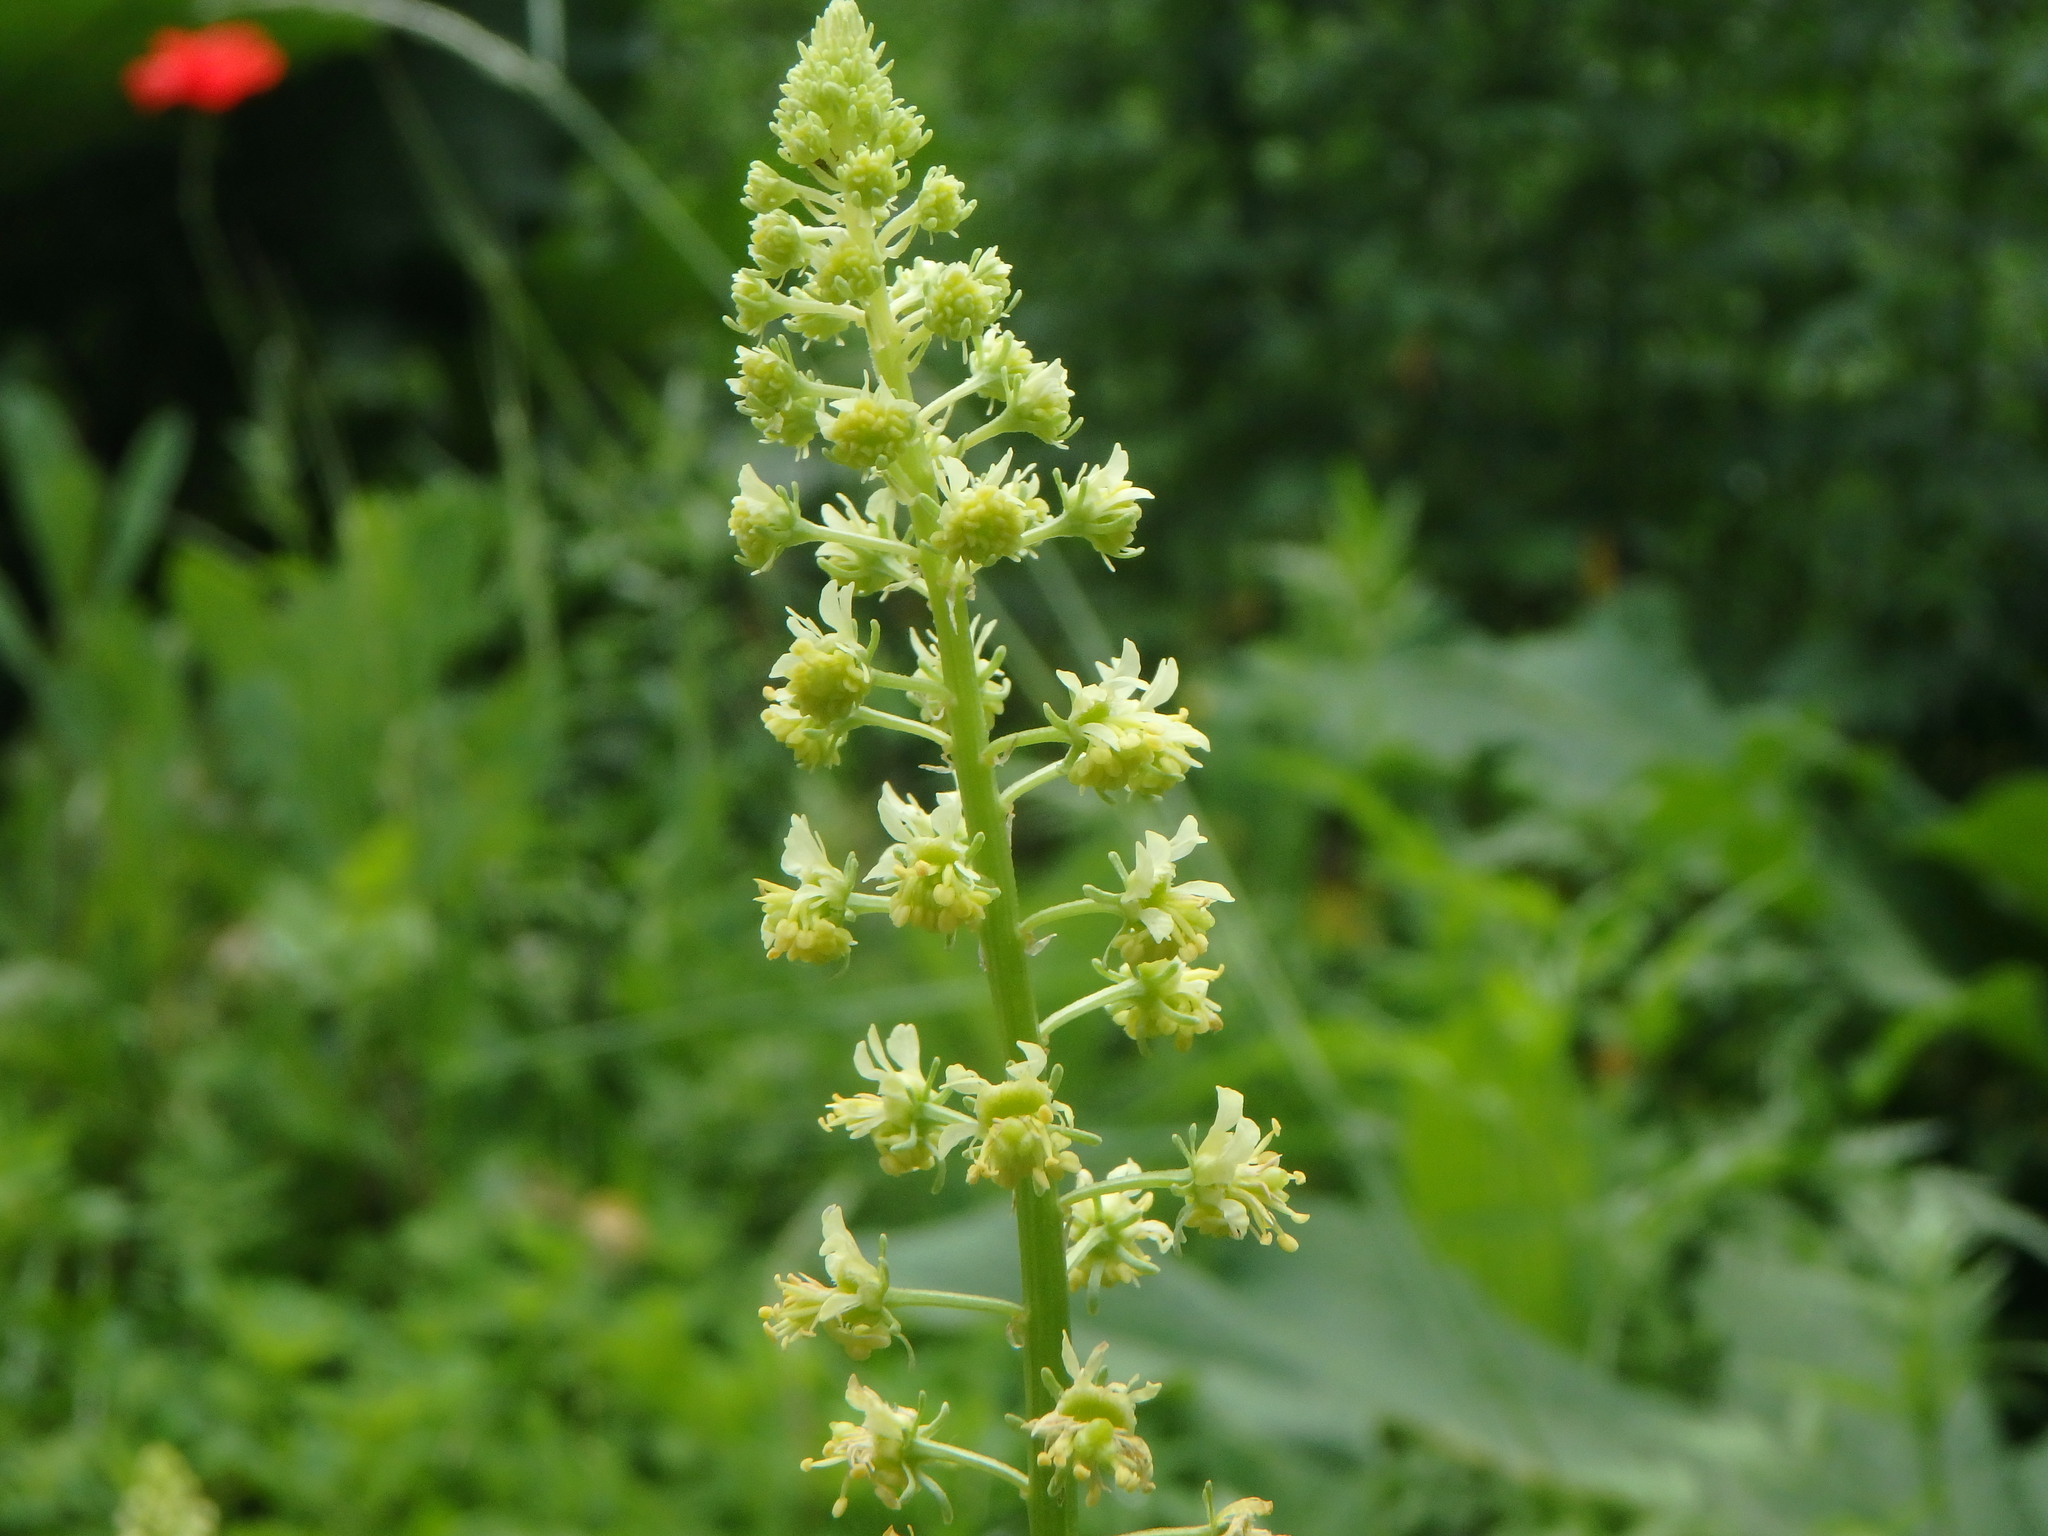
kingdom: Plantae
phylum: Tracheophyta
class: Magnoliopsida
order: Brassicales
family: Resedaceae
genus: Reseda
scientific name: Reseda lutea
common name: Wild mignonette
